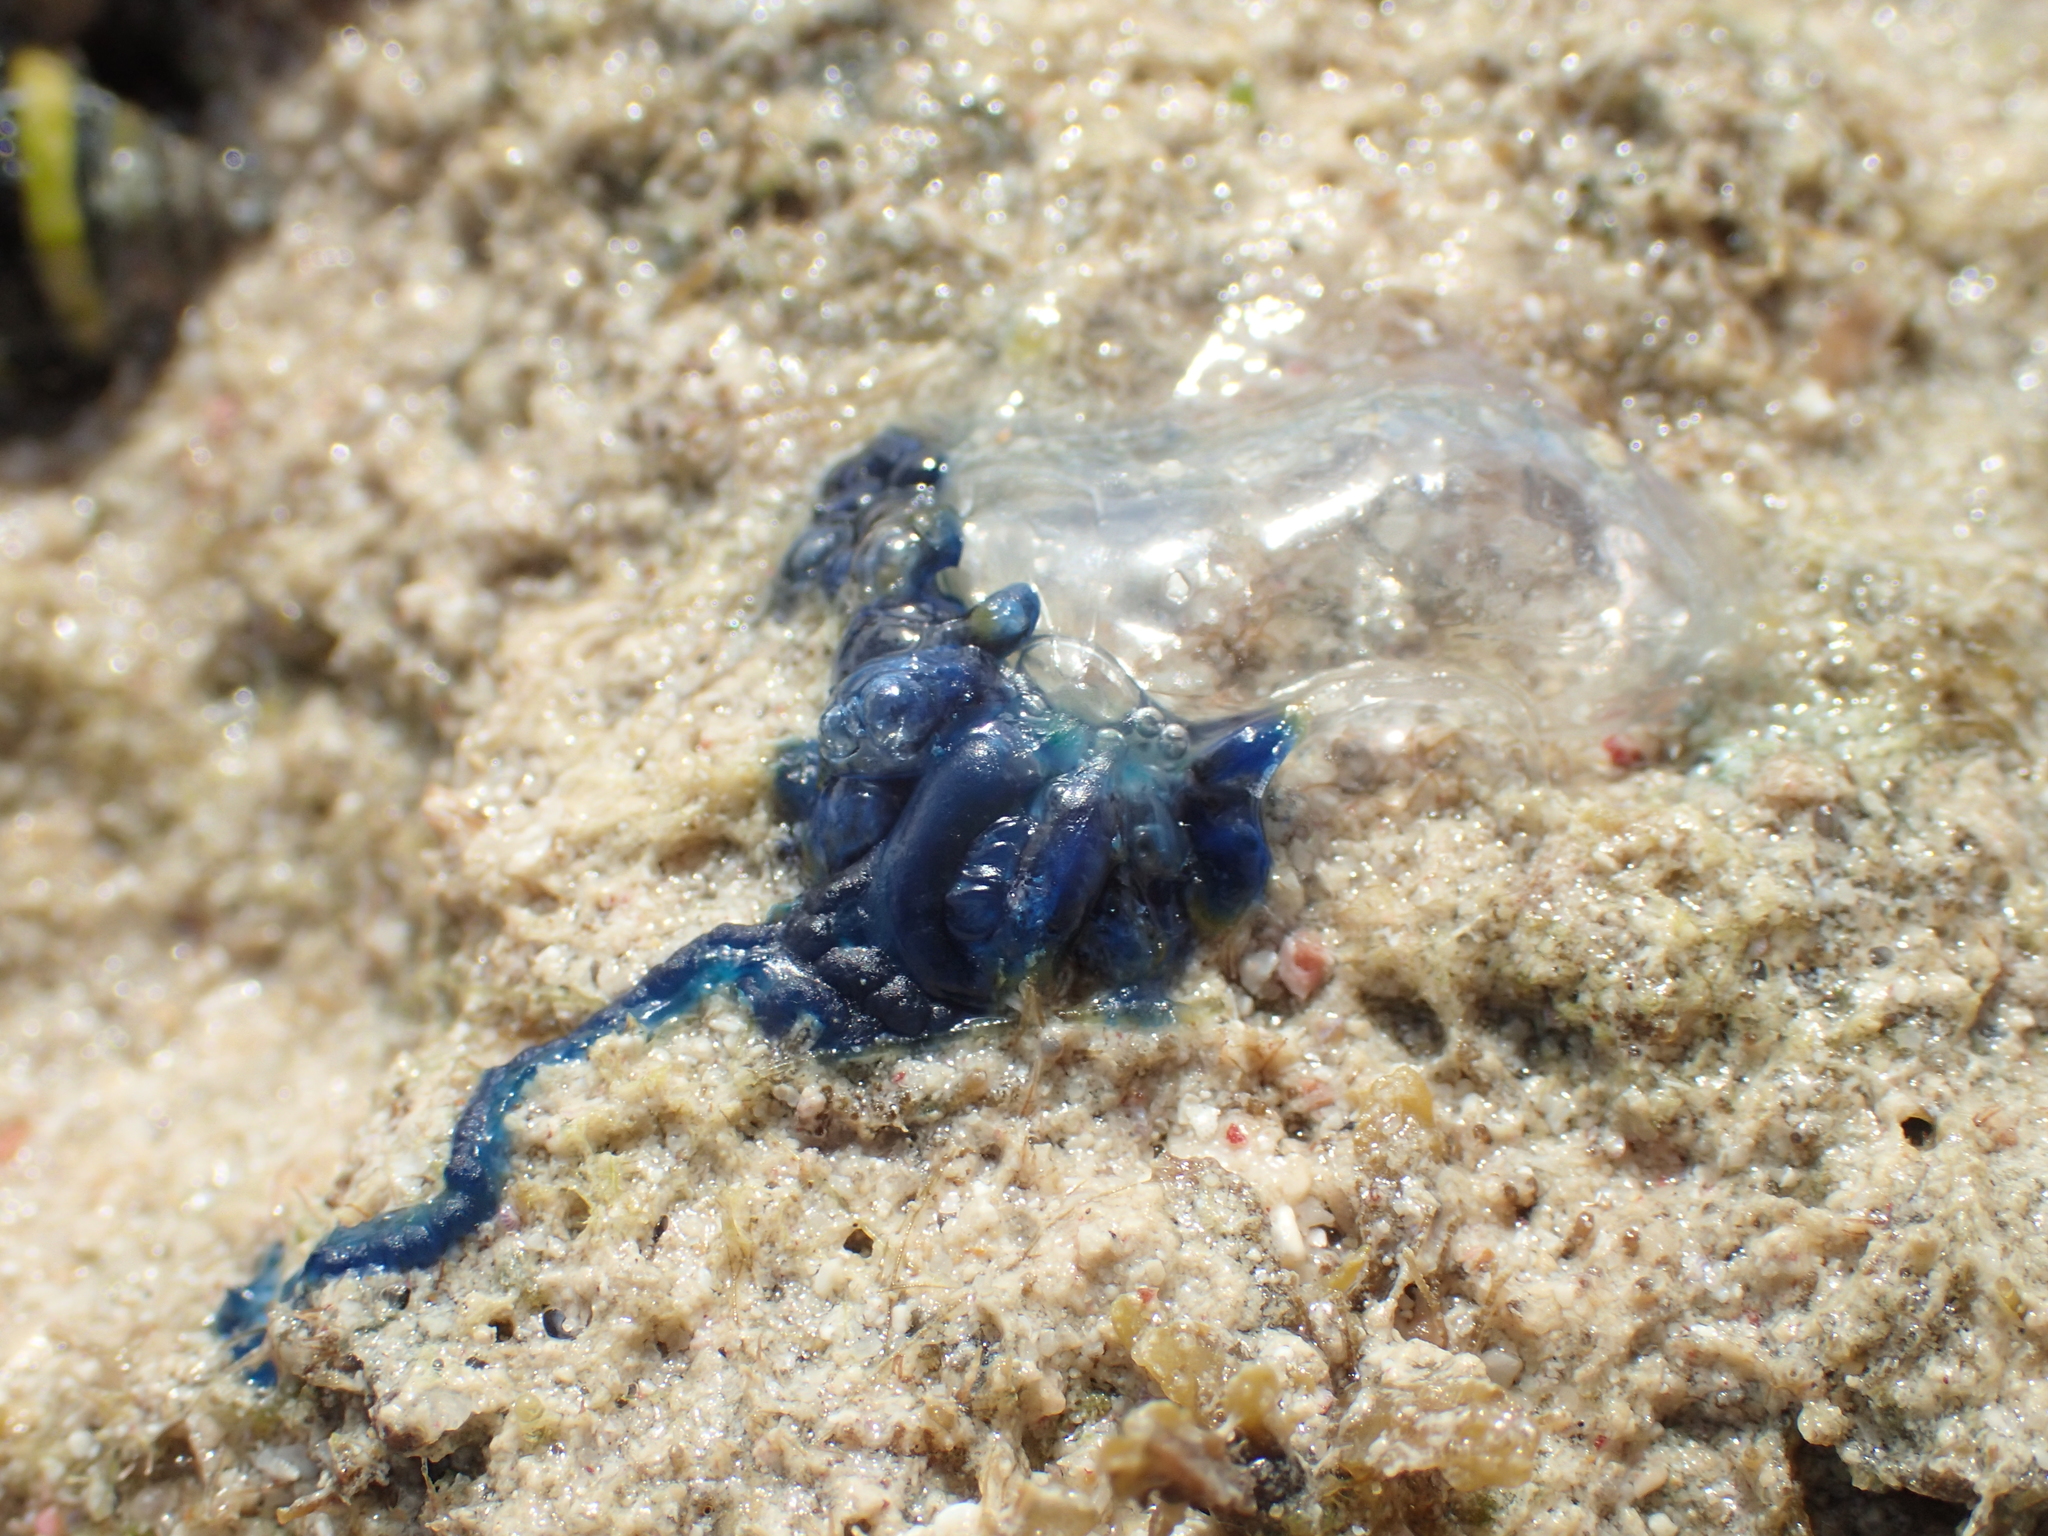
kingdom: Animalia
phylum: Cnidaria
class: Hydrozoa
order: Siphonophorae
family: Physaliidae
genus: Physalia
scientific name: Physalia physalis
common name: Portuguese man-of-war
